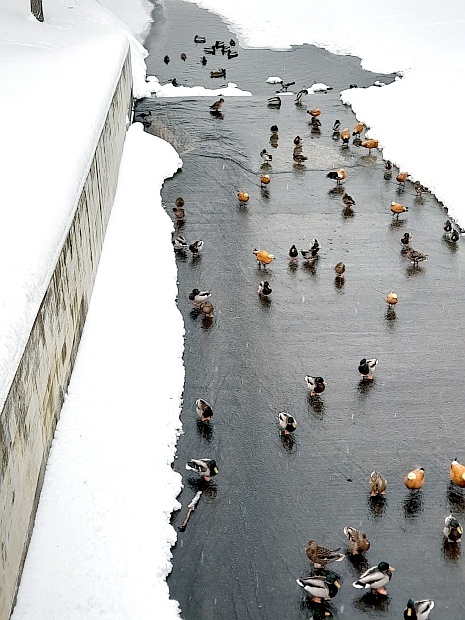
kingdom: Animalia
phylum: Chordata
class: Aves
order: Anseriformes
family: Anatidae
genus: Anas
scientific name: Anas platyrhynchos
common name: Mallard
